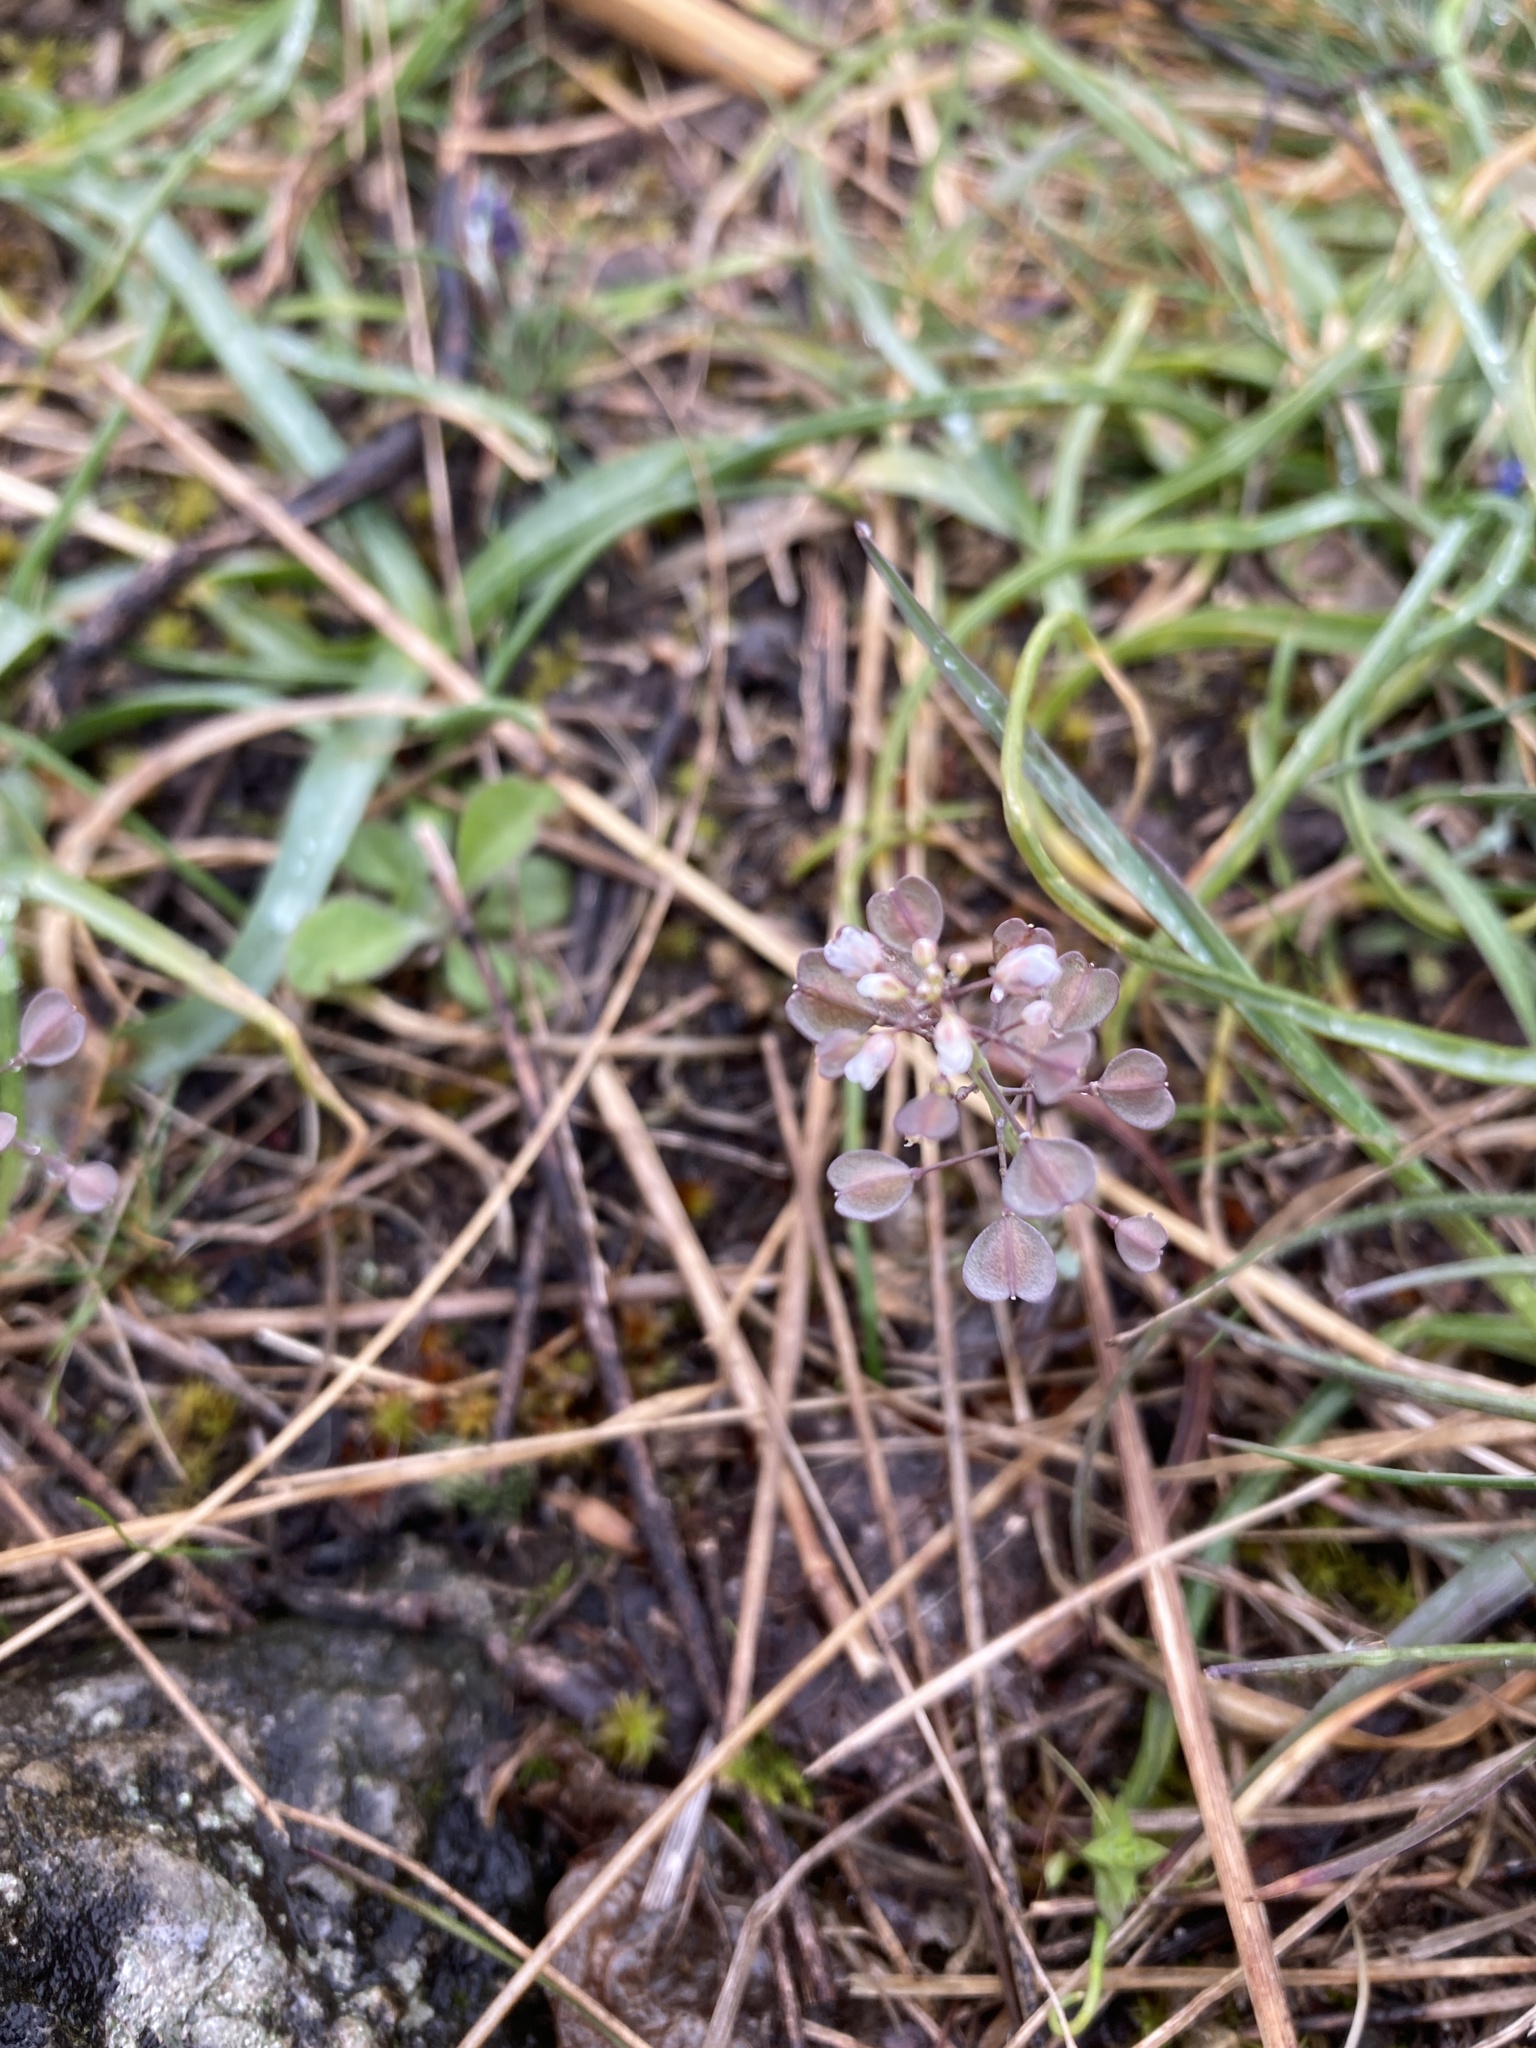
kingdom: Plantae
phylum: Tracheophyta
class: Magnoliopsida
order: Brassicales
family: Brassicaceae
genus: Noccaea
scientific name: Noccaea perfoliata
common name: Perfoliate pennycress
